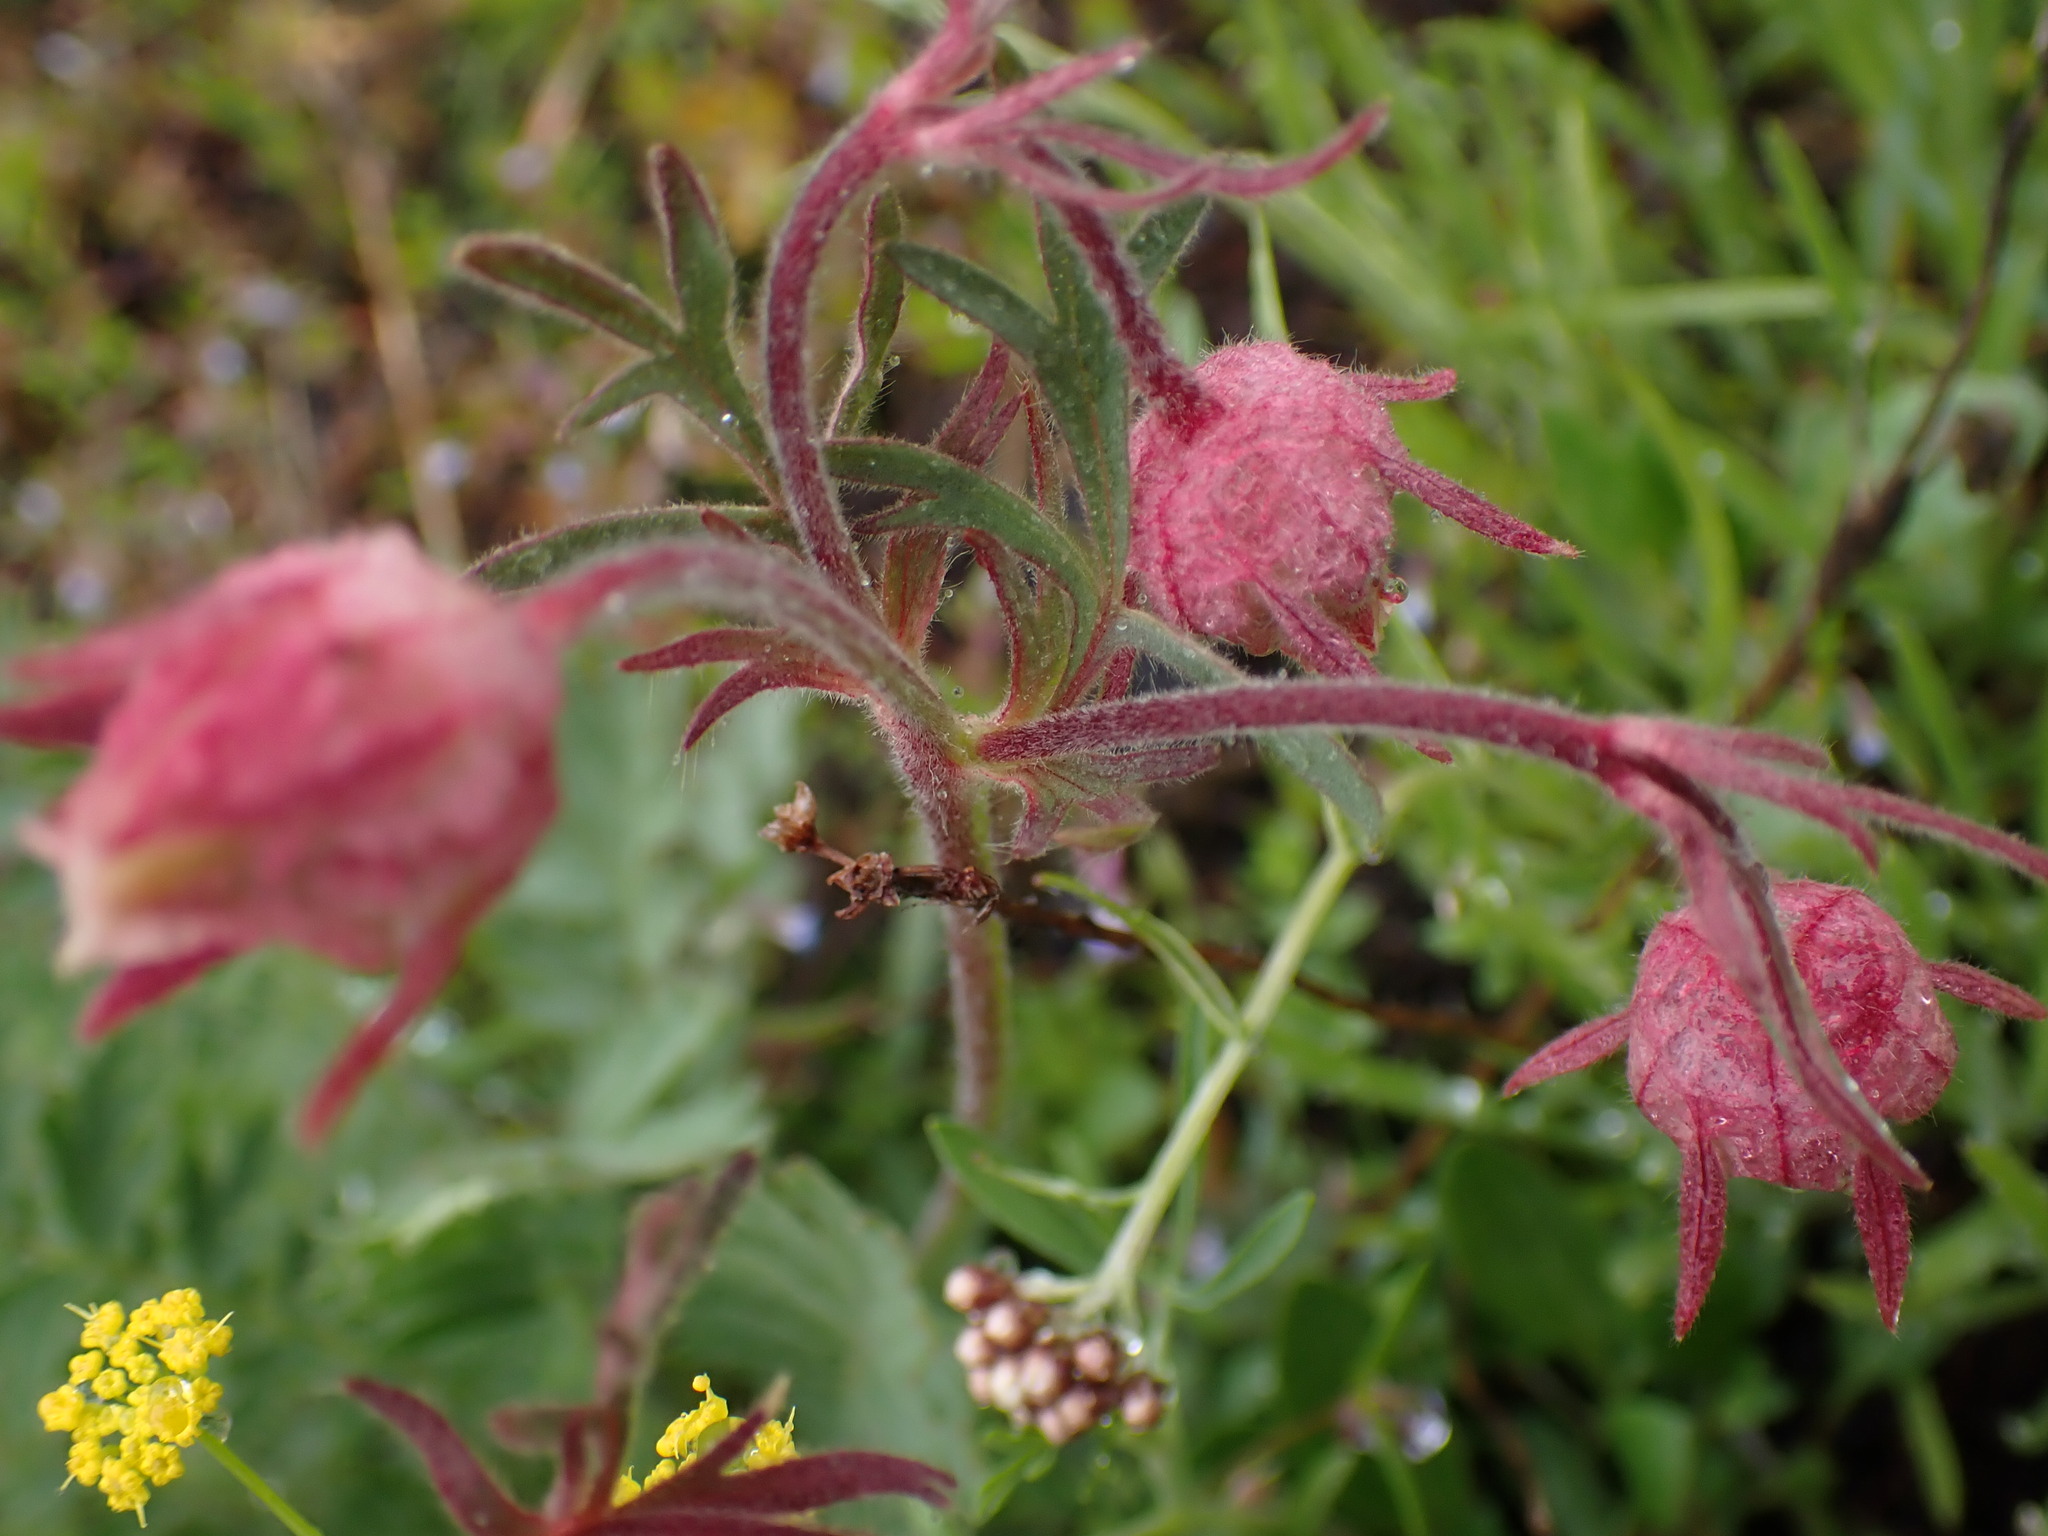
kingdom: Plantae
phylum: Tracheophyta
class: Magnoliopsida
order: Rosales
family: Rosaceae
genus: Geum
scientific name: Geum triflorum
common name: Old man's whiskers
